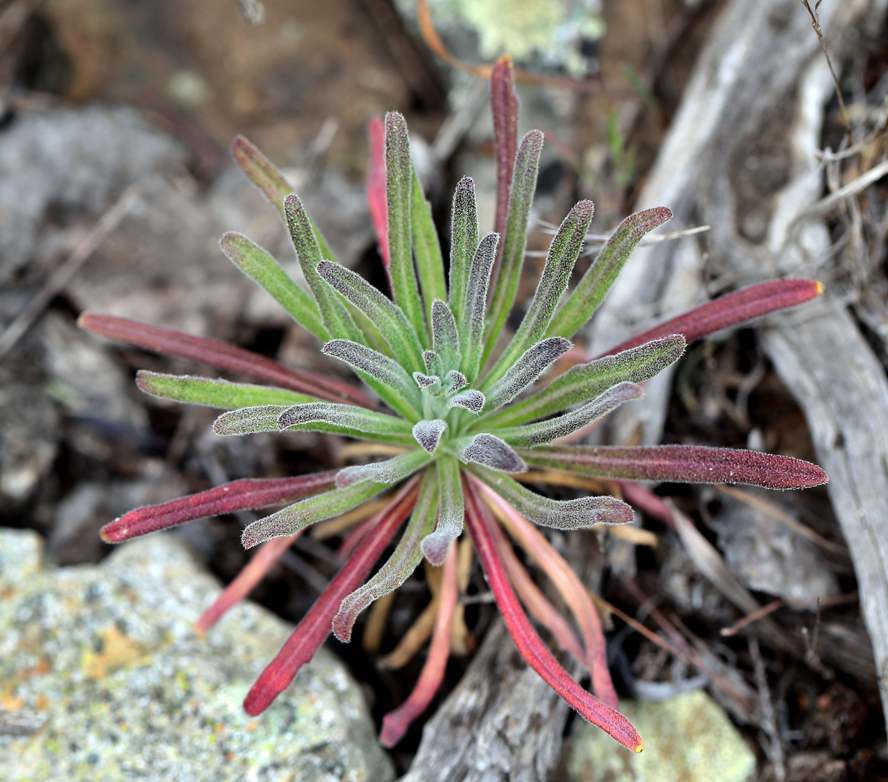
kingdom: Plantae
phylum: Tracheophyta
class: Magnoliopsida
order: Brassicales
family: Brassicaceae
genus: Boechera
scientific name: Boechera hoffmanii
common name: Hoffmann's rockcress
